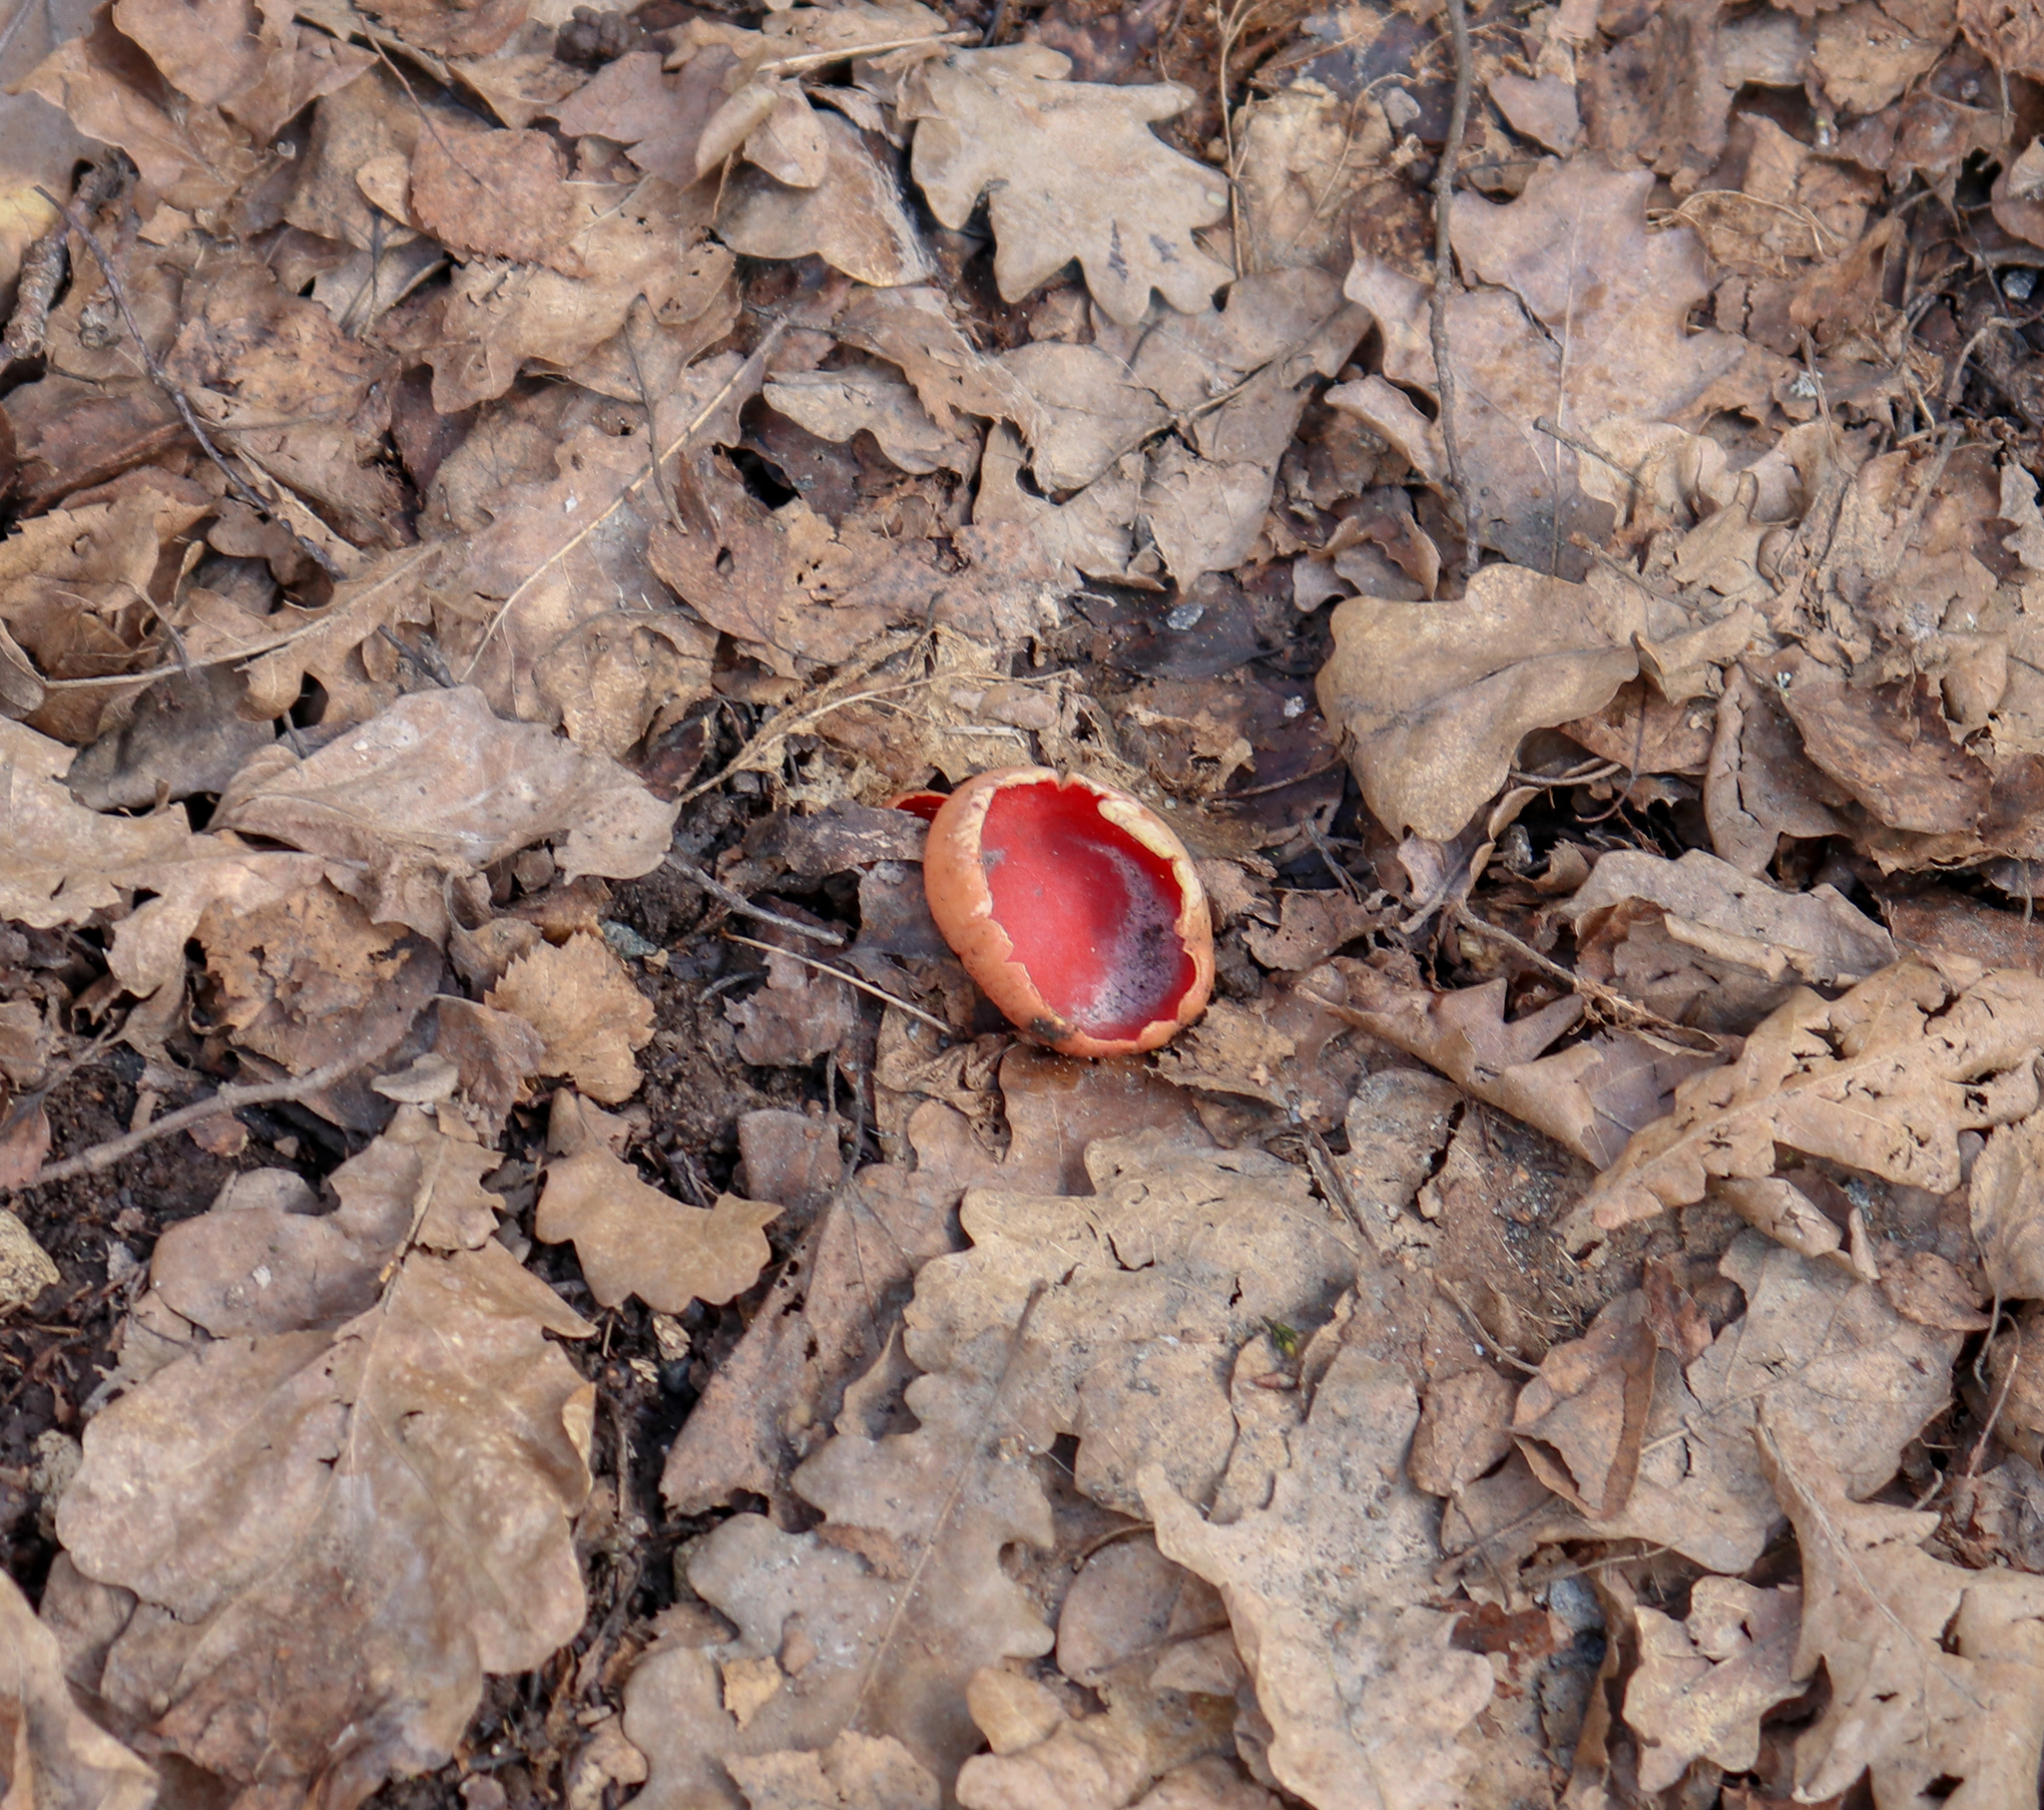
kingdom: Fungi
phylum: Ascomycota
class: Pezizomycetes
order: Pezizales
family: Sarcoscyphaceae
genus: Sarcoscypha
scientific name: Sarcoscypha austriaca
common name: Scarlet elfcup
